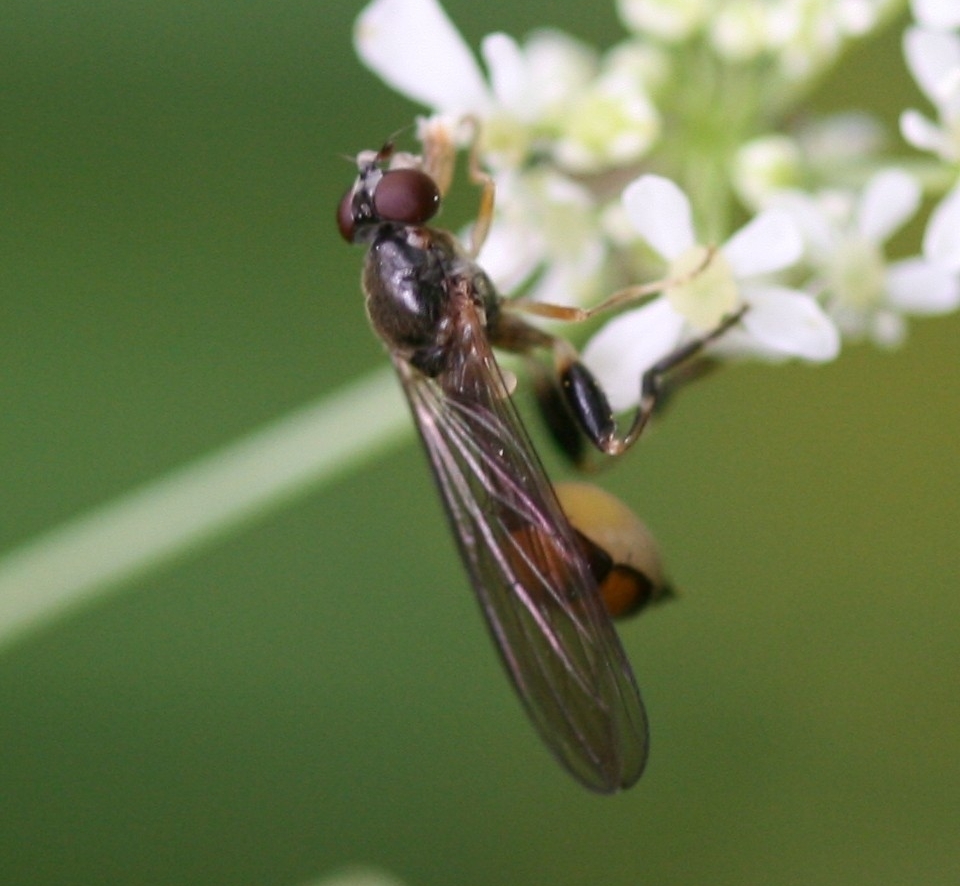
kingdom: Animalia
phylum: Arthropoda
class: Insecta
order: Diptera
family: Syrphidae
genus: Sphegina
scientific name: Sphegina elegans
